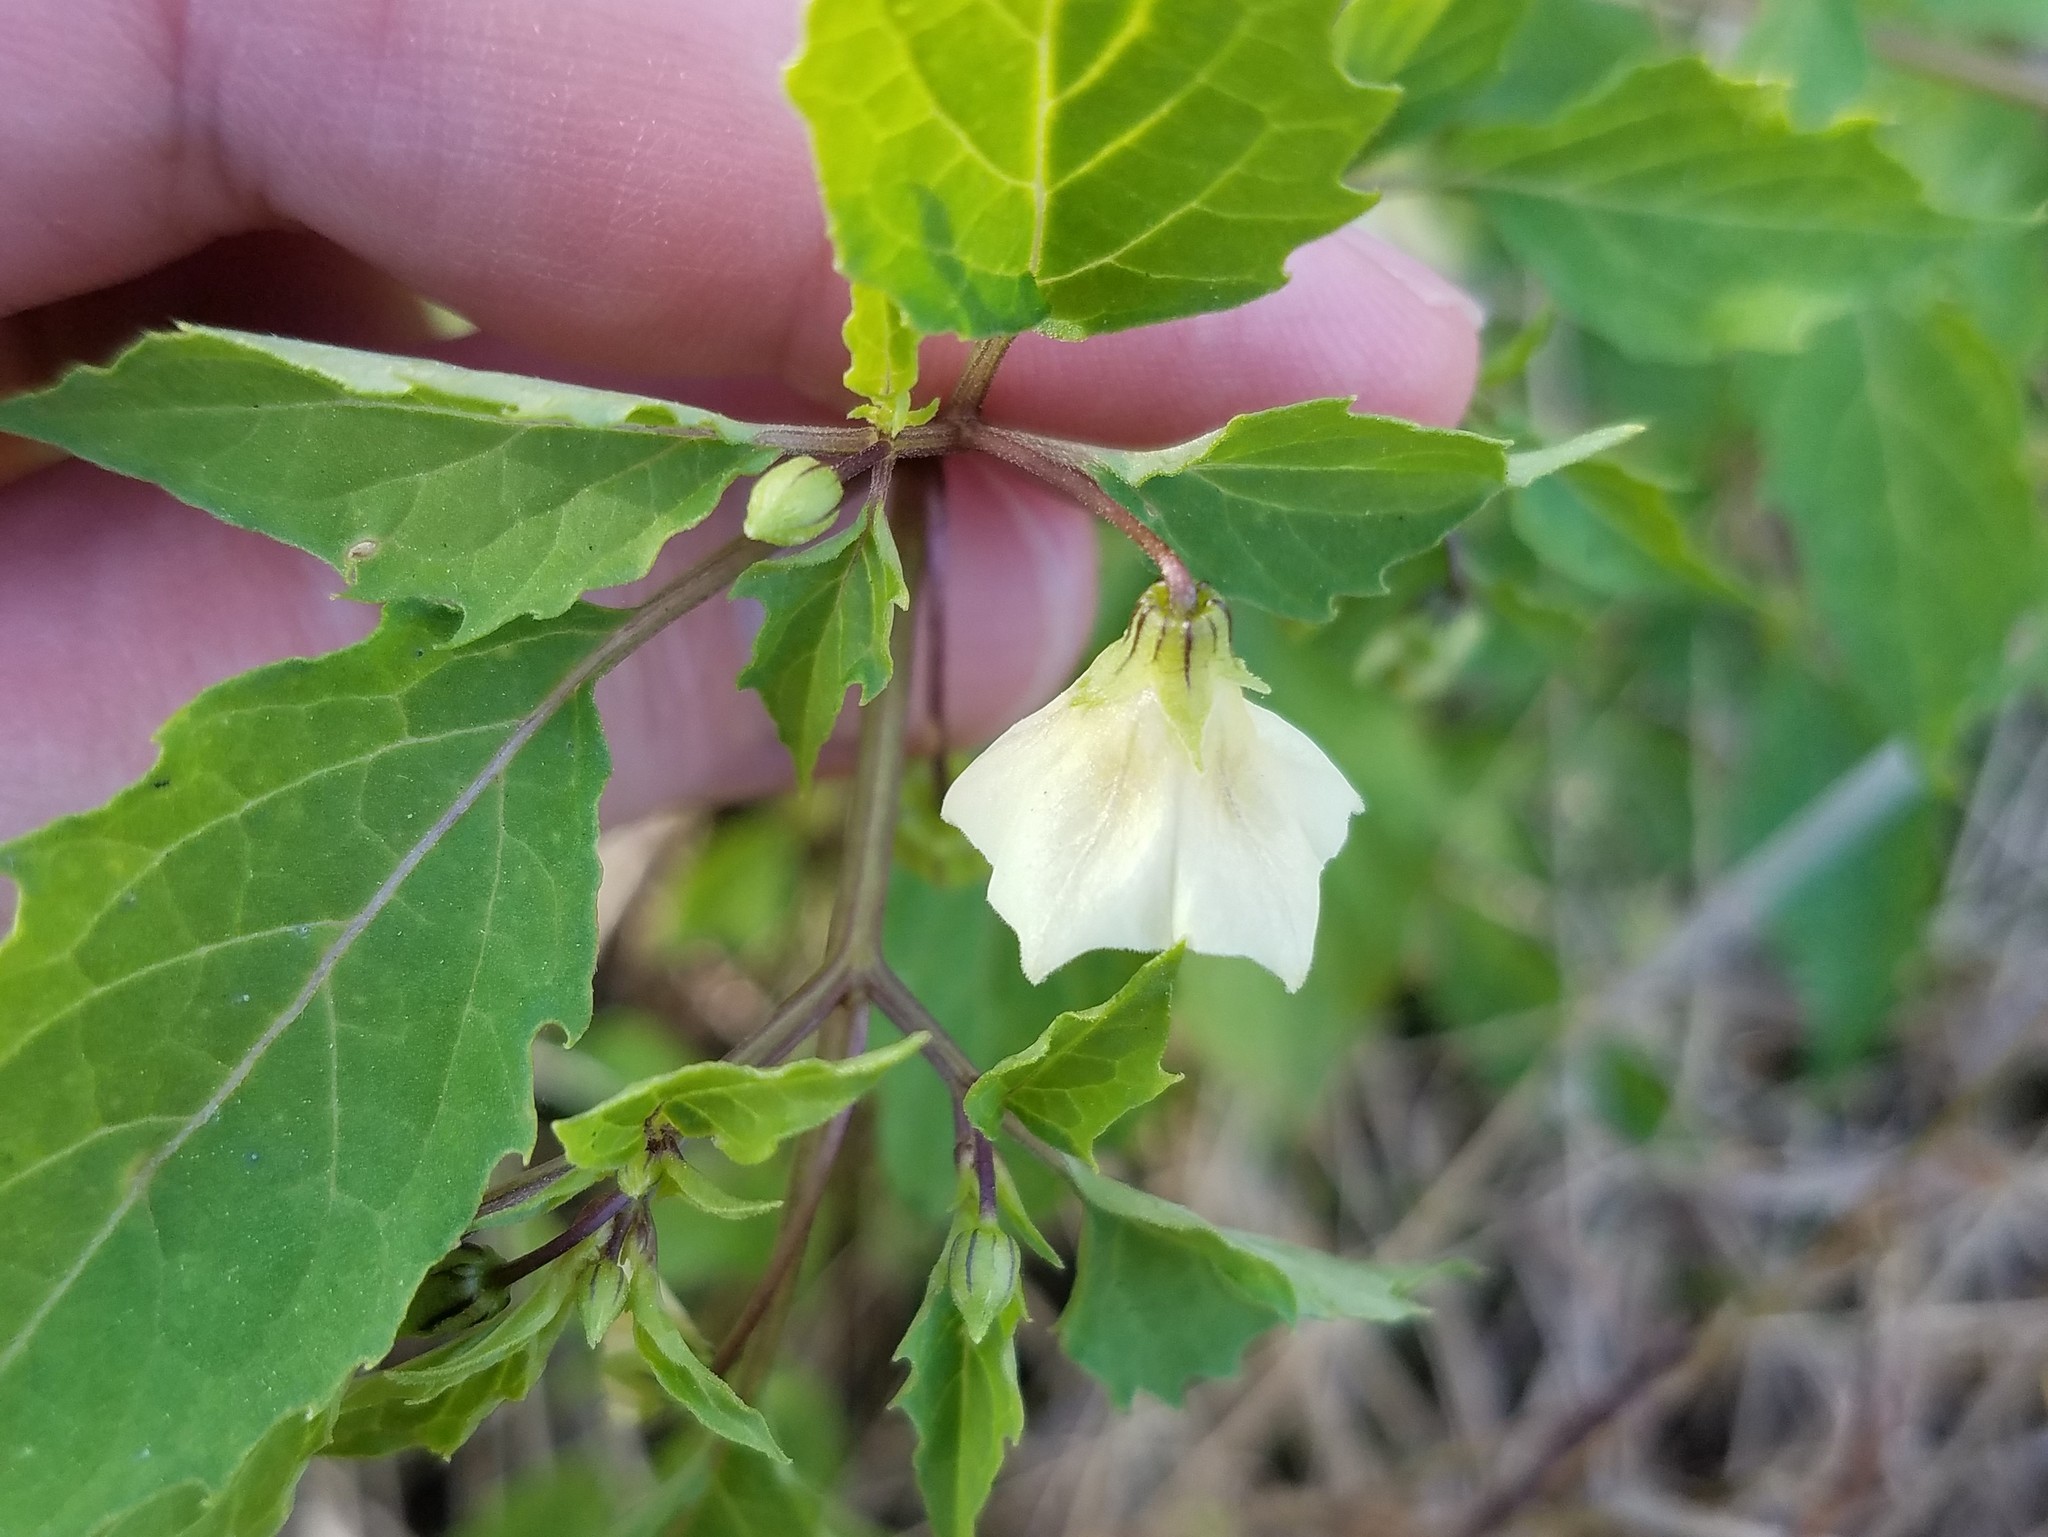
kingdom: Plantae
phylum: Tracheophyta
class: Magnoliopsida
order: Solanales
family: Solanaceae
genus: Physalis
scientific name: Physalis angulata
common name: Angular winter-cherry
